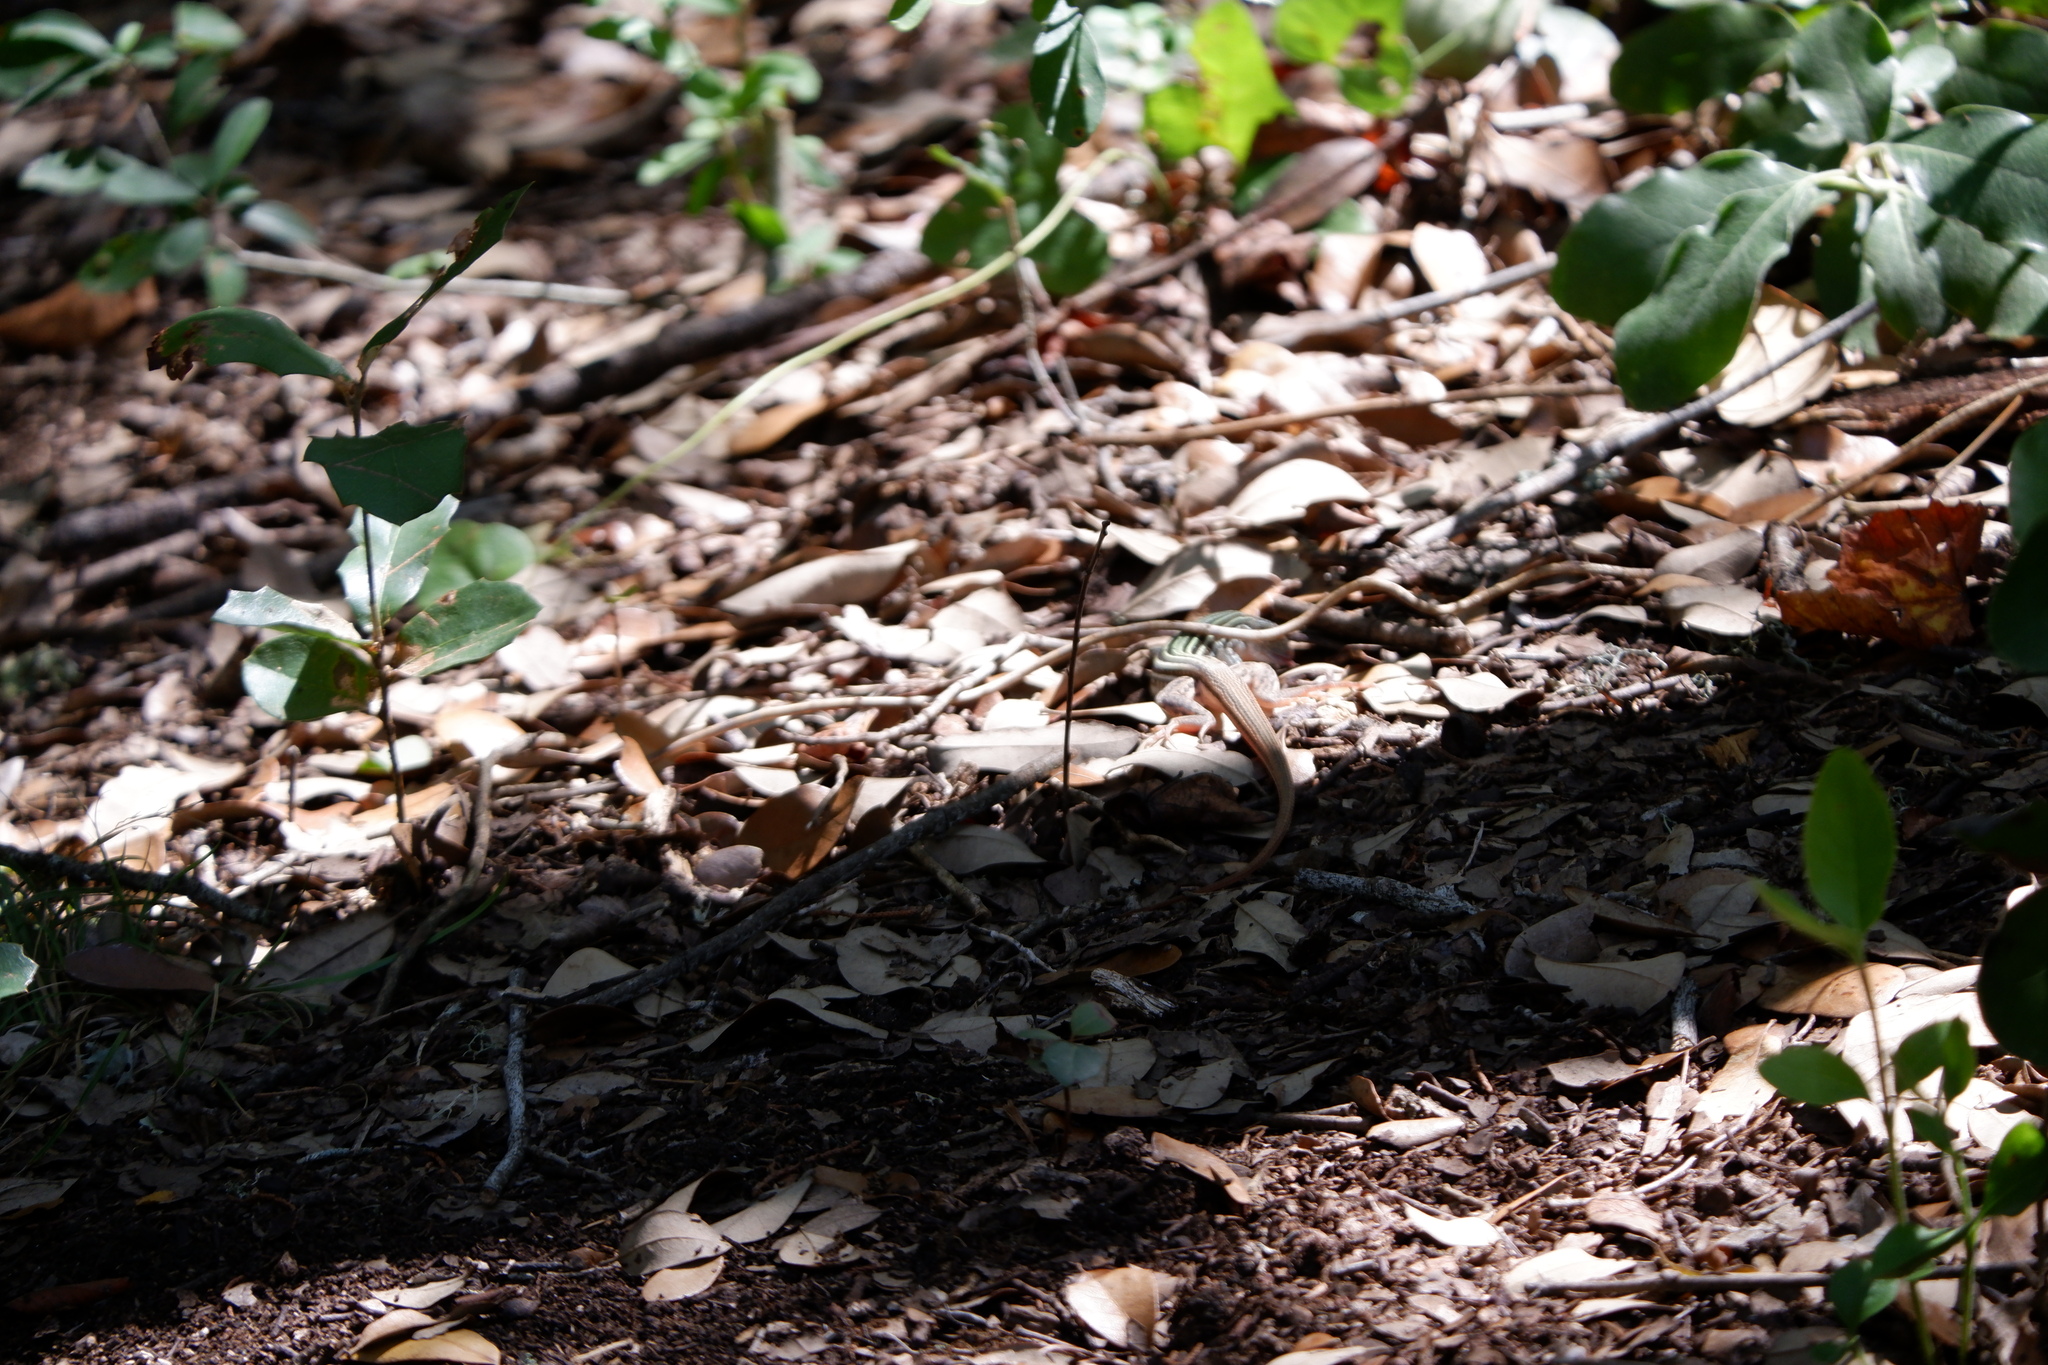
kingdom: Animalia
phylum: Chordata
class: Squamata
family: Teiidae
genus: Aspidoscelis
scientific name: Aspidoscelis gularis
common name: Eastern spotted whiptail
